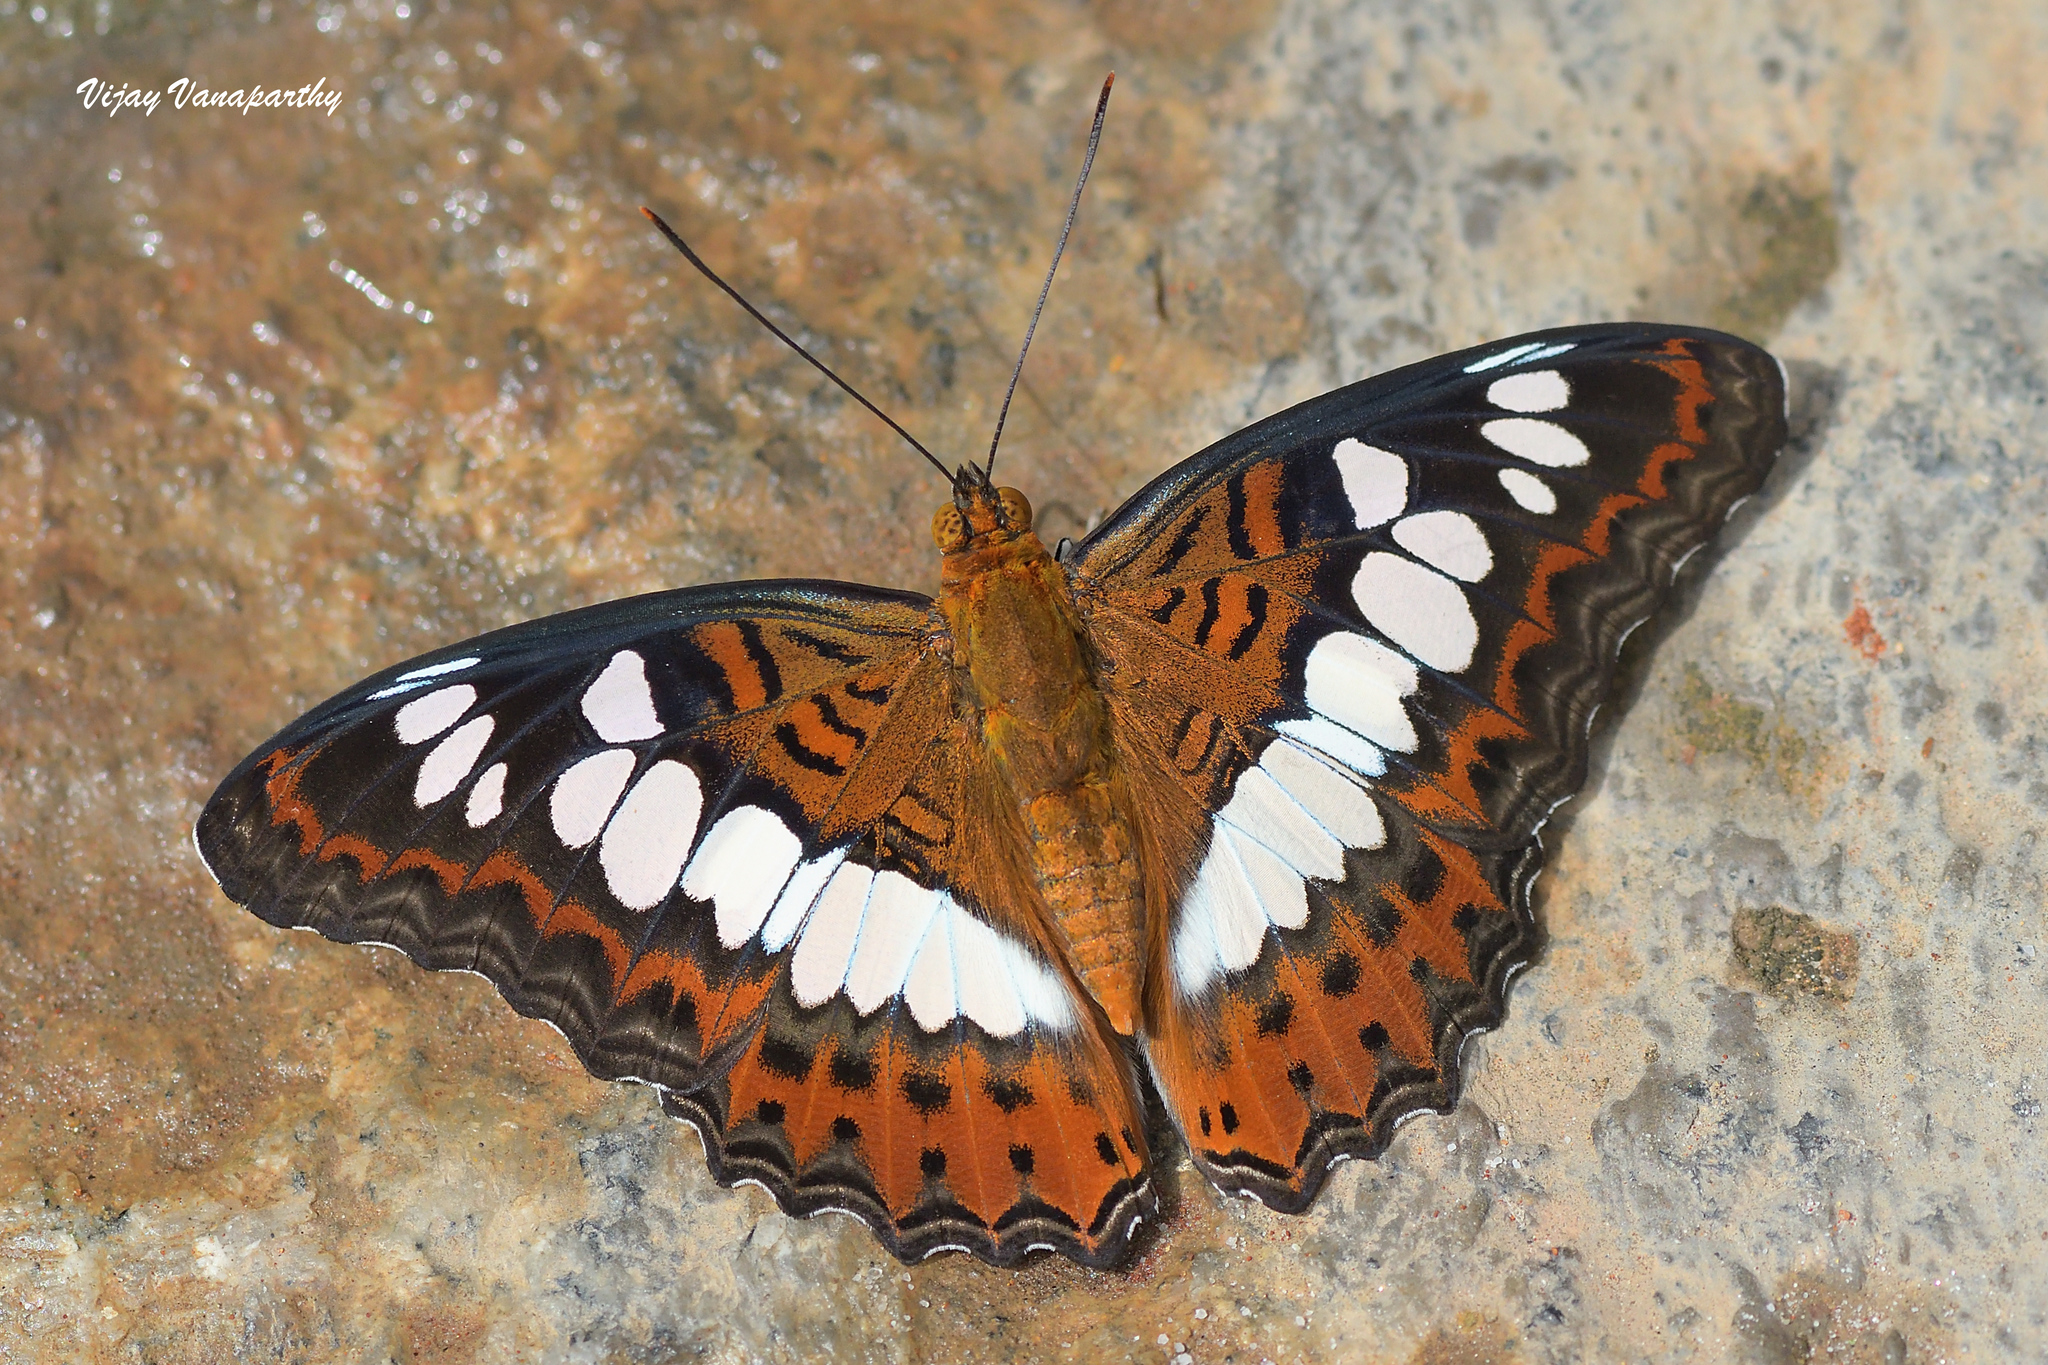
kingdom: Animalia
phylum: Arthropoda
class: Insecta
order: Lepidoptera
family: Nymphalidae
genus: Limenitis
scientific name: Limenitis Moduza procris
